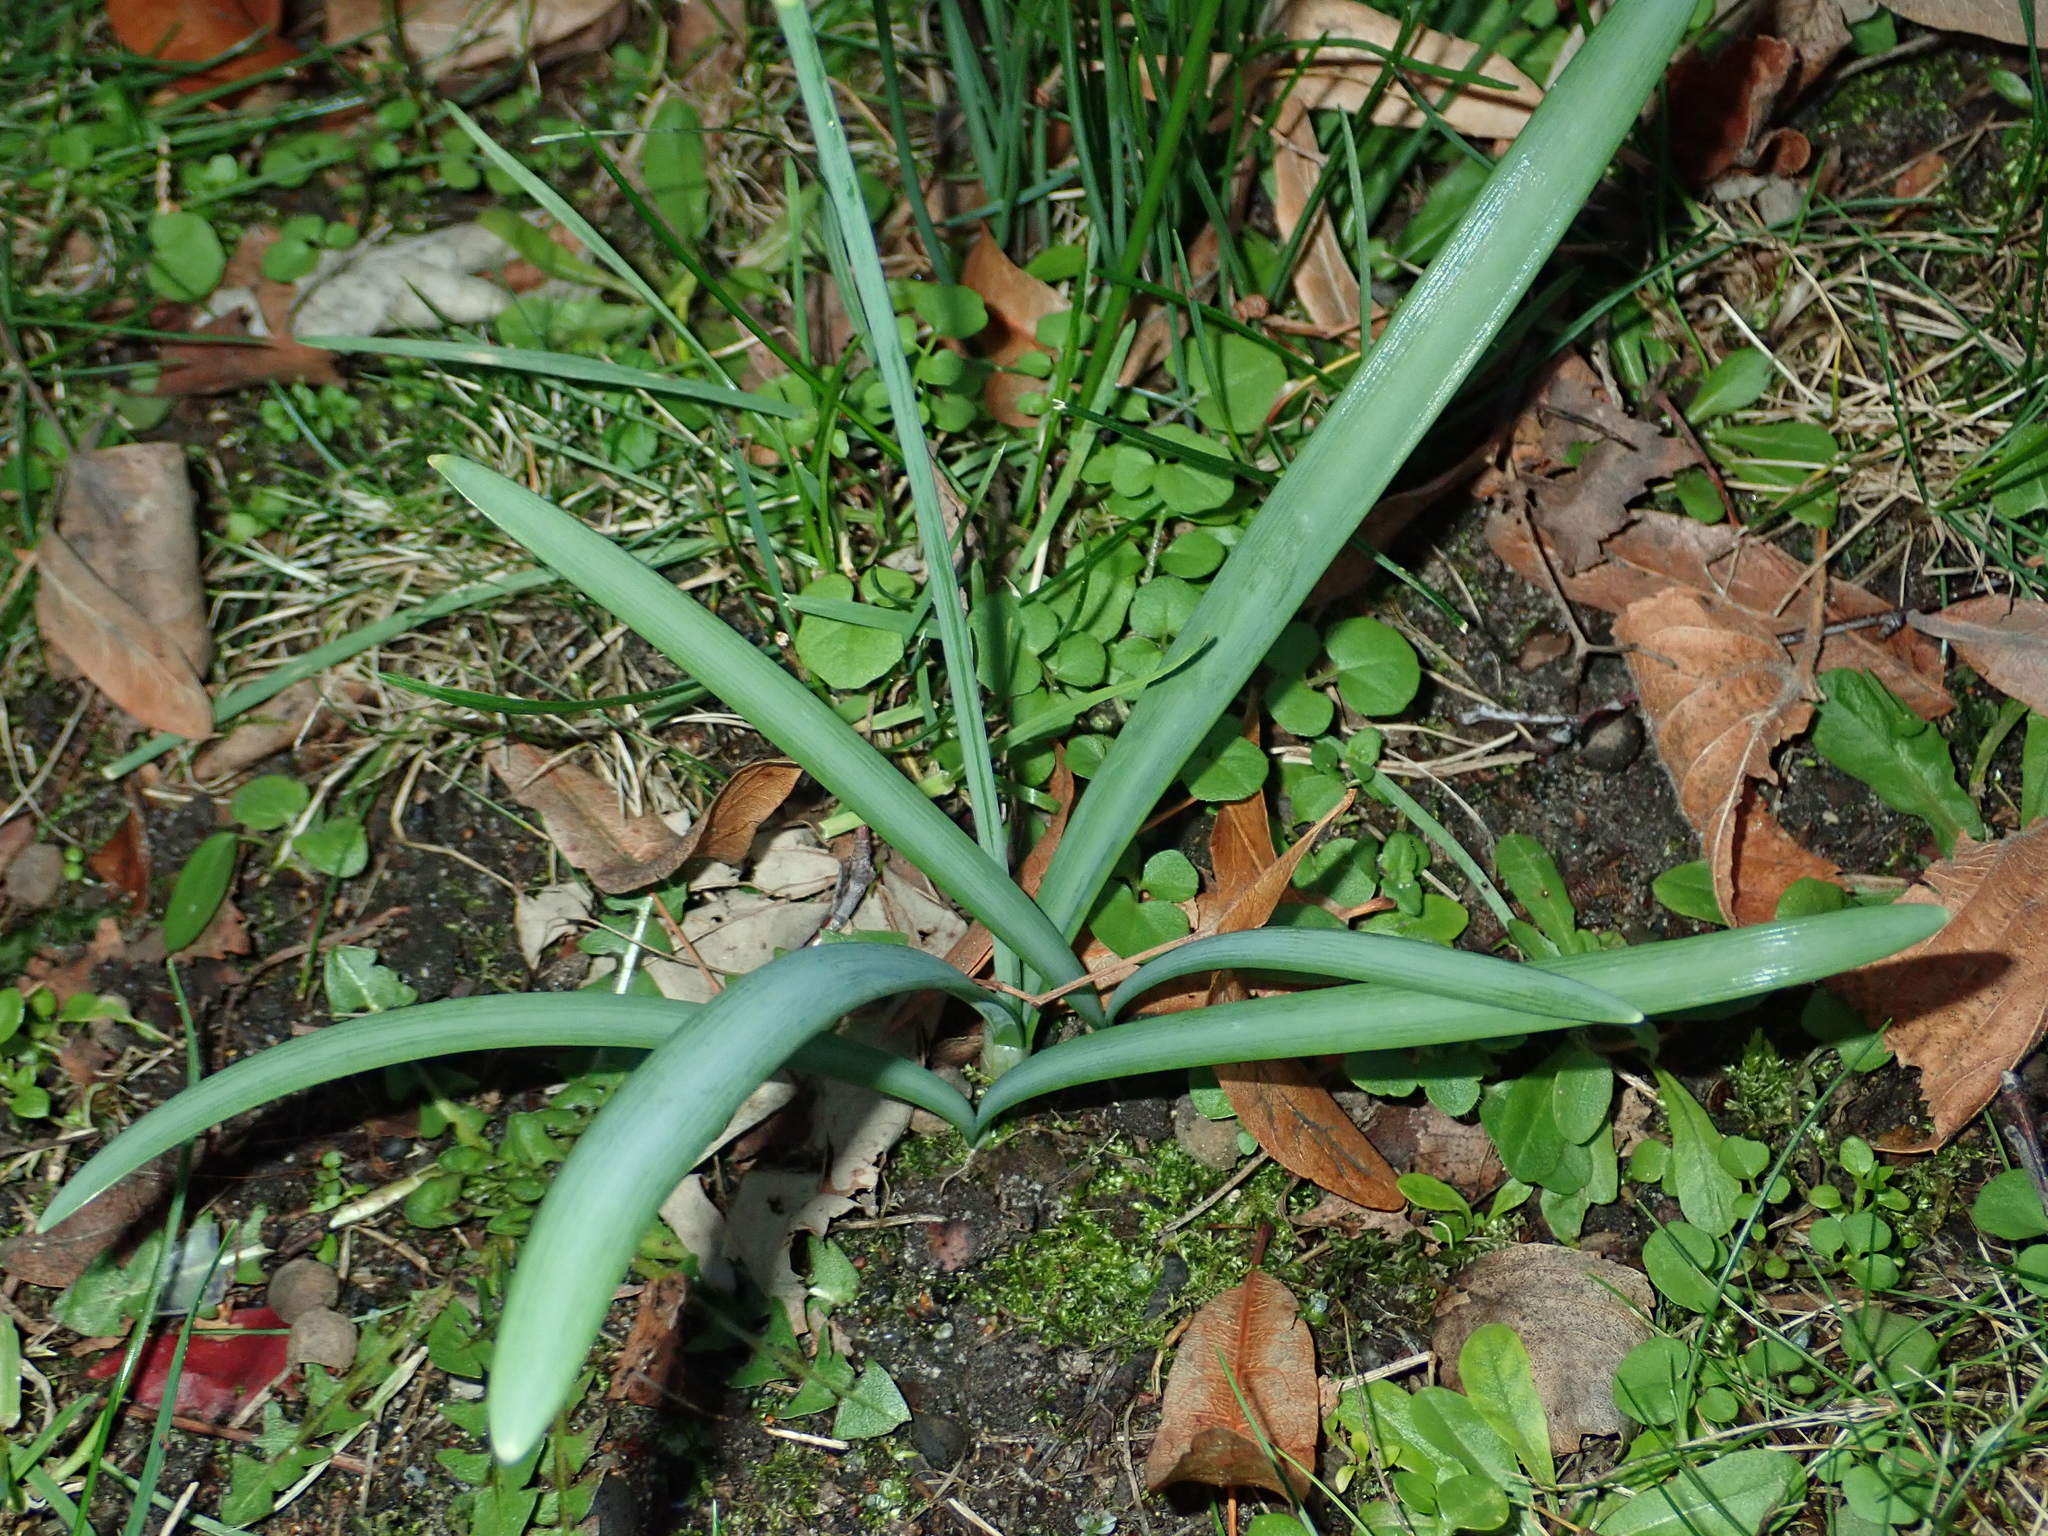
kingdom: Plantae
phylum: Tracheophyta
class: Liliopsida
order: Asparagales
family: Amaryllidaceae
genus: Galanthus
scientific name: Galanthus nivalis
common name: Snowdrop
